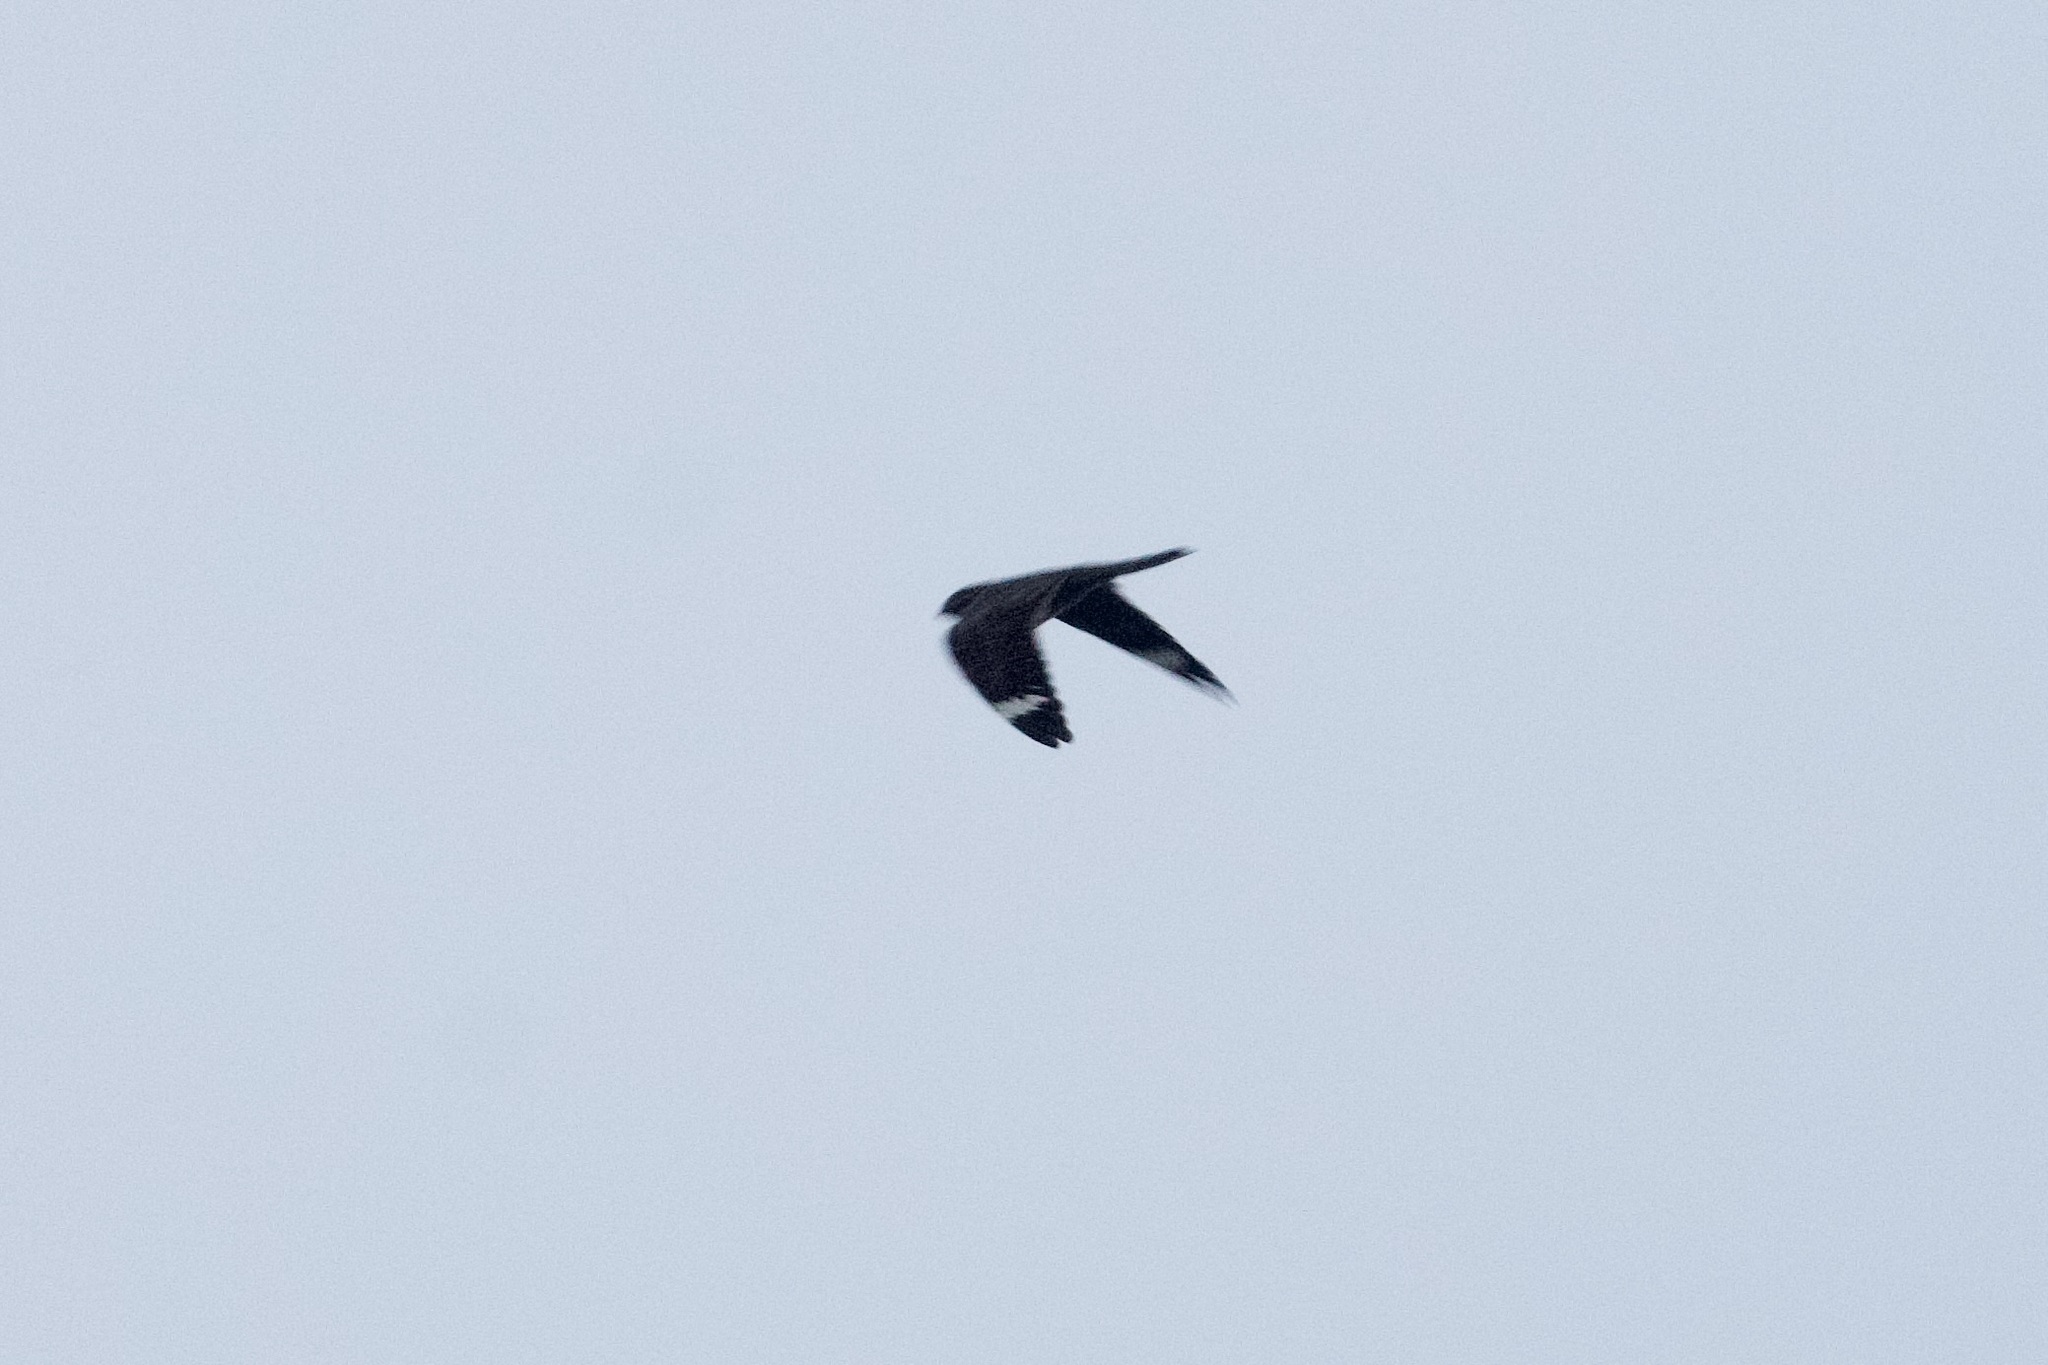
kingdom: Animalia
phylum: Chordata
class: Aves
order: Caprimulgiformes
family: Caprimulgidae
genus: Chordeiles
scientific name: Chordeiles acutipennis
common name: Lesser nighthawk
